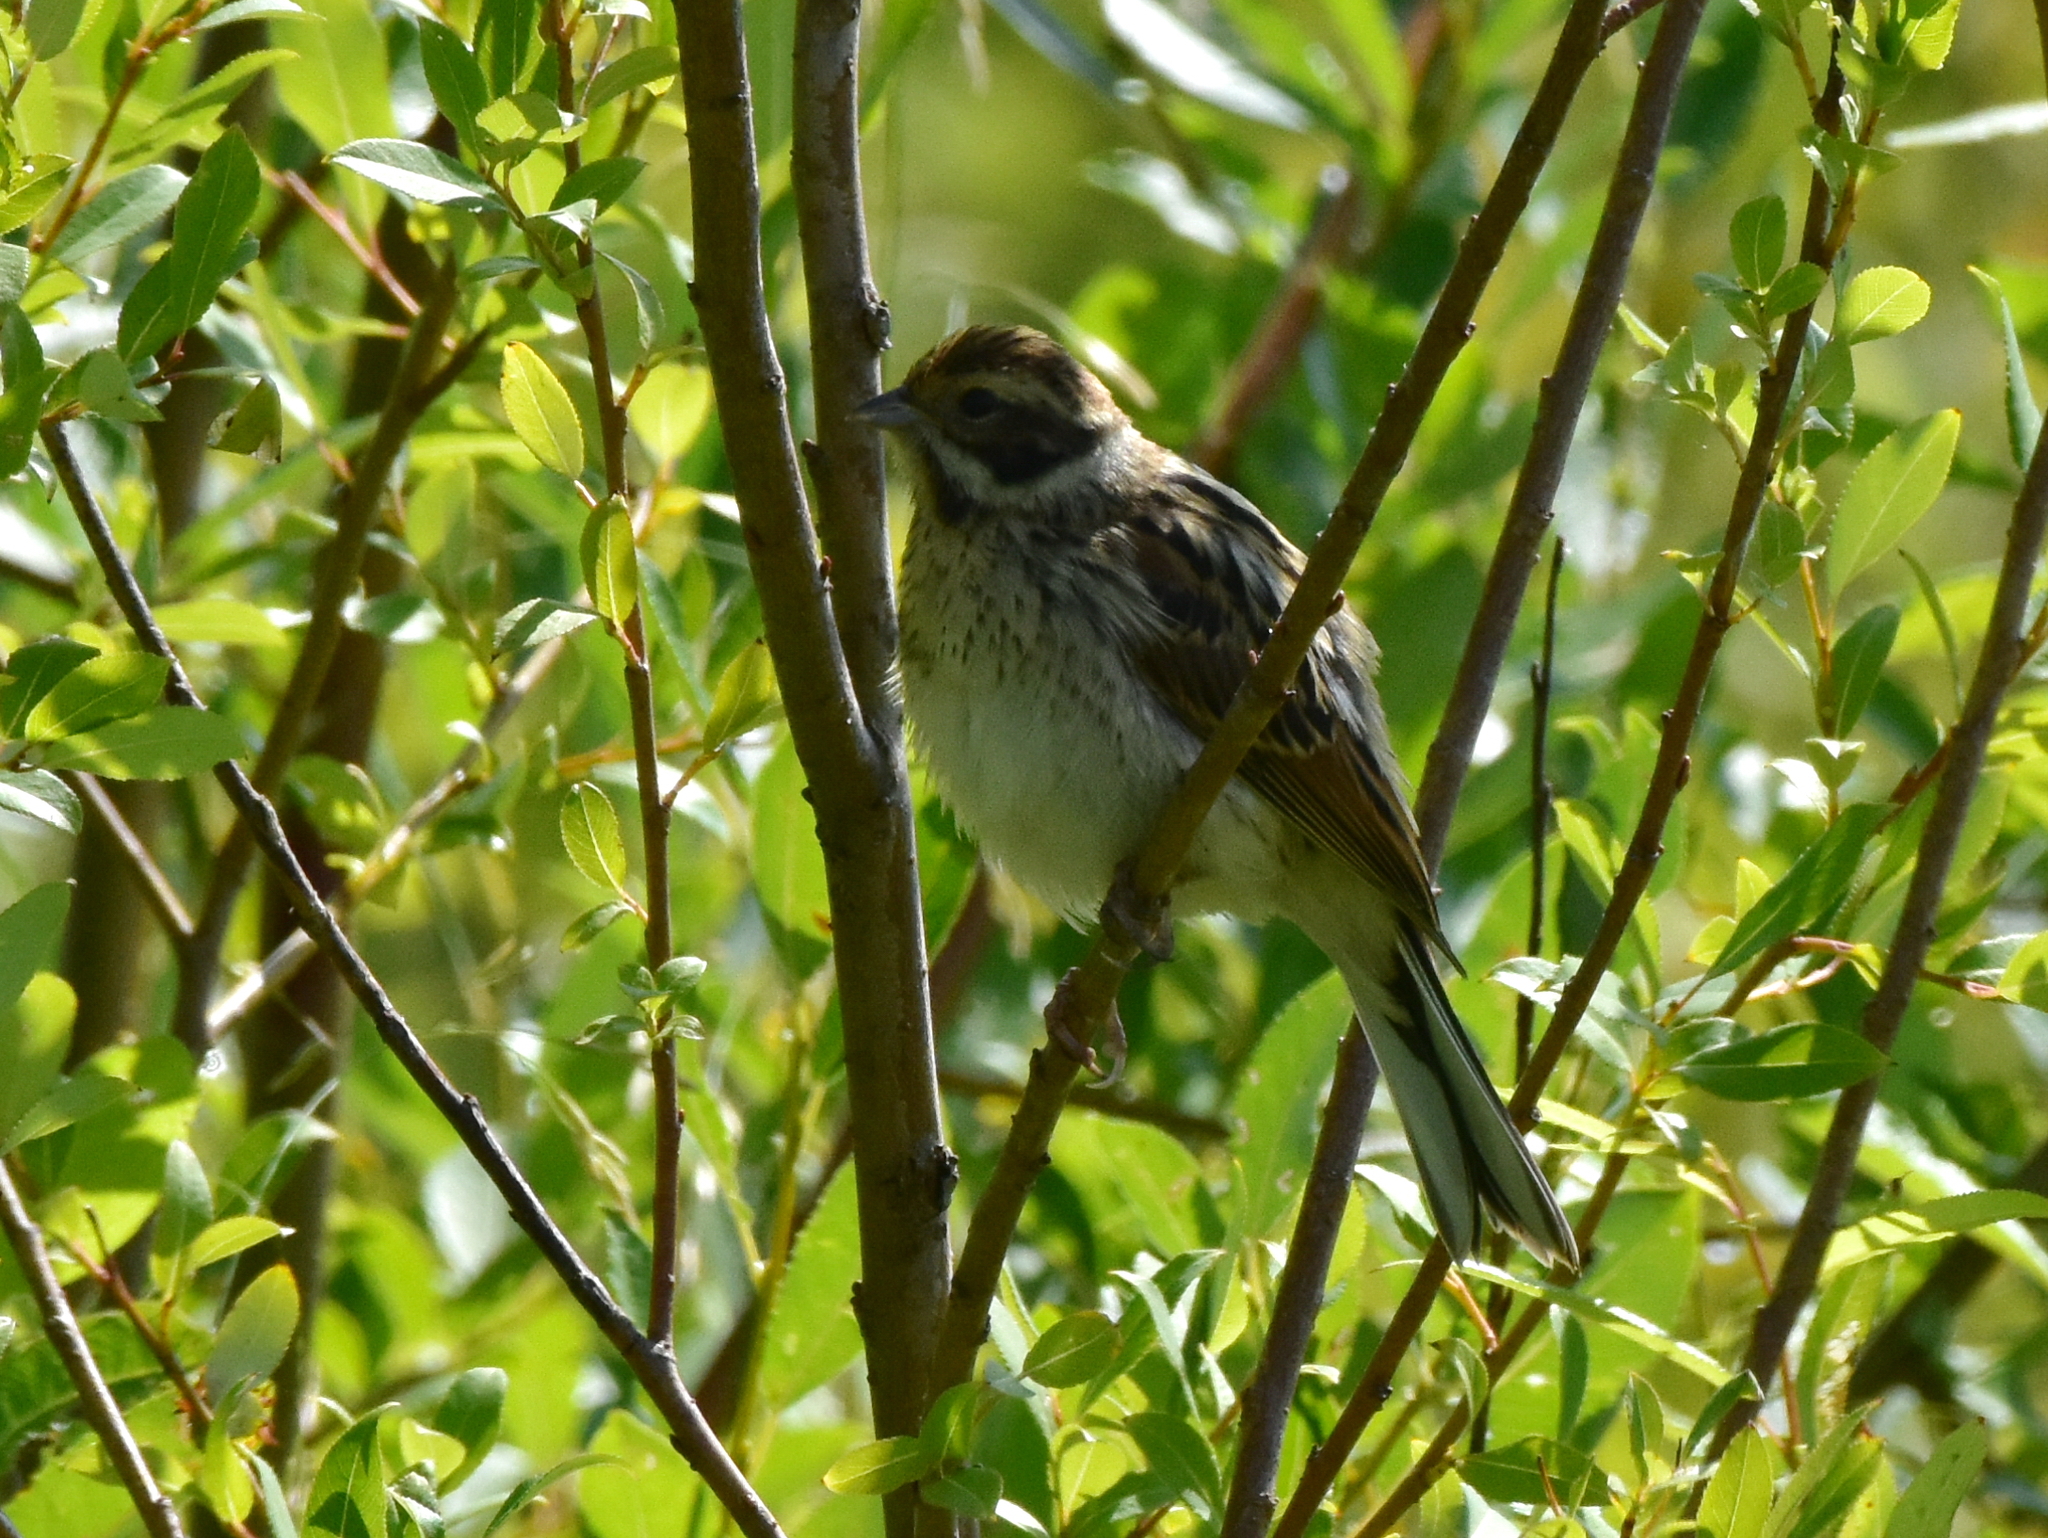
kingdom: Animalia
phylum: Chordata
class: Aves
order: Passeriformes
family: Emberizidae
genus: Emberiza
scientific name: Emberiza schoeniclus
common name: Reed bunting
